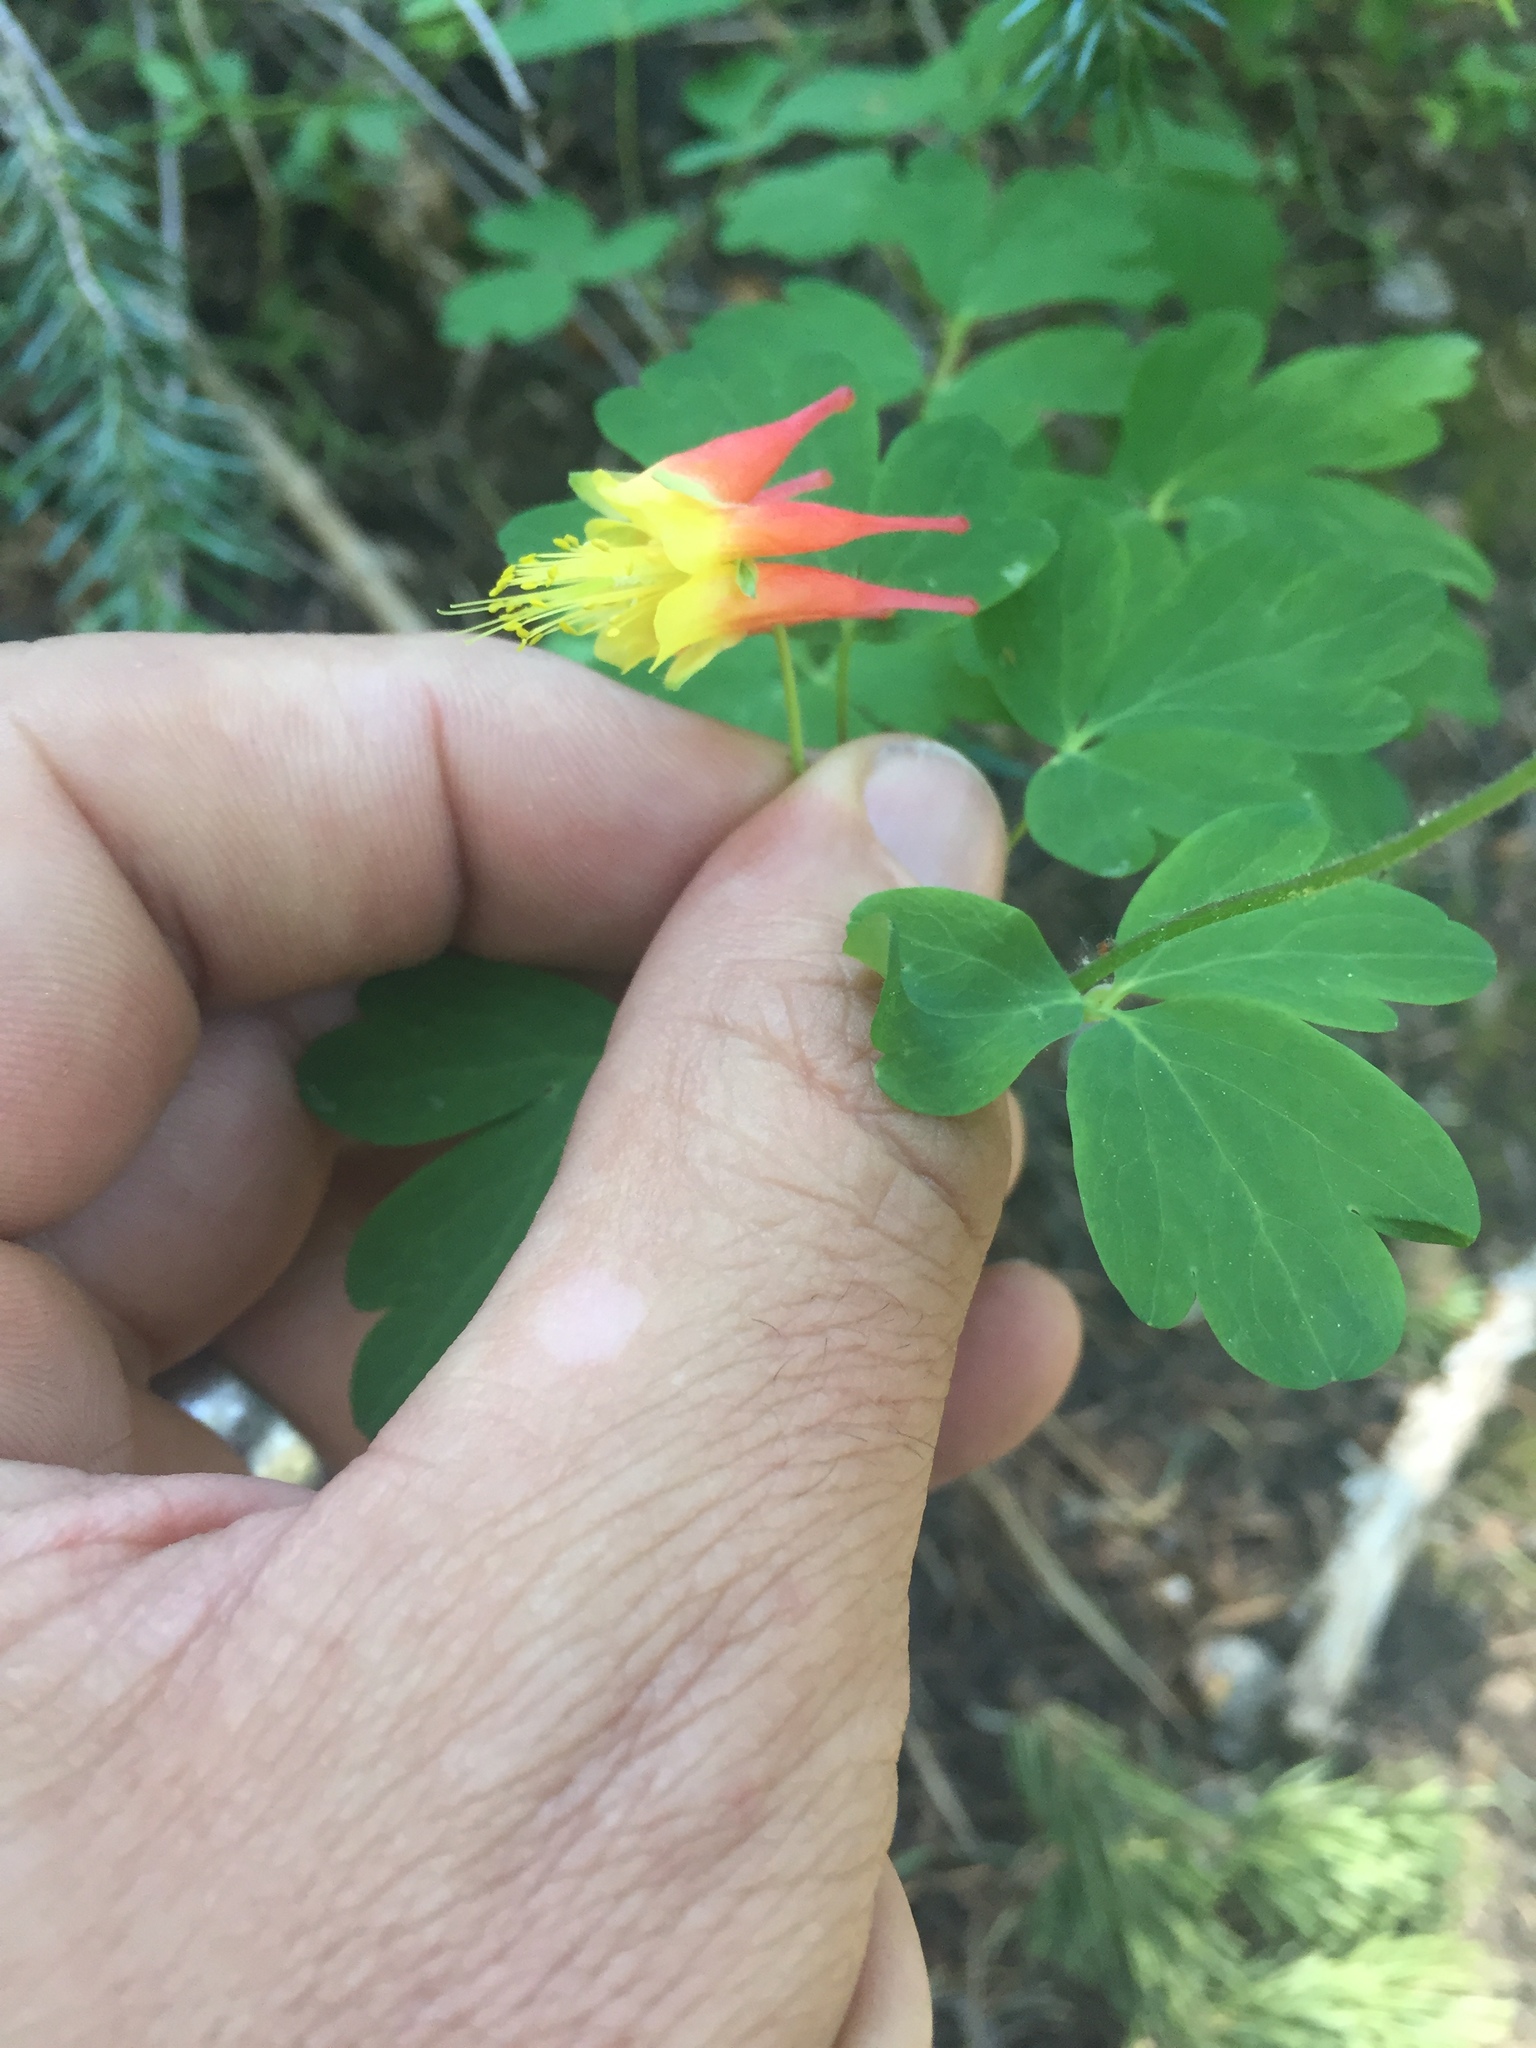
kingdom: Plantae
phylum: Tracheophyta
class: Magnoliopsida
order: Ranunculales
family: Ranunculaceae
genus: Aquilegia
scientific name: Aquilegia elegantula
